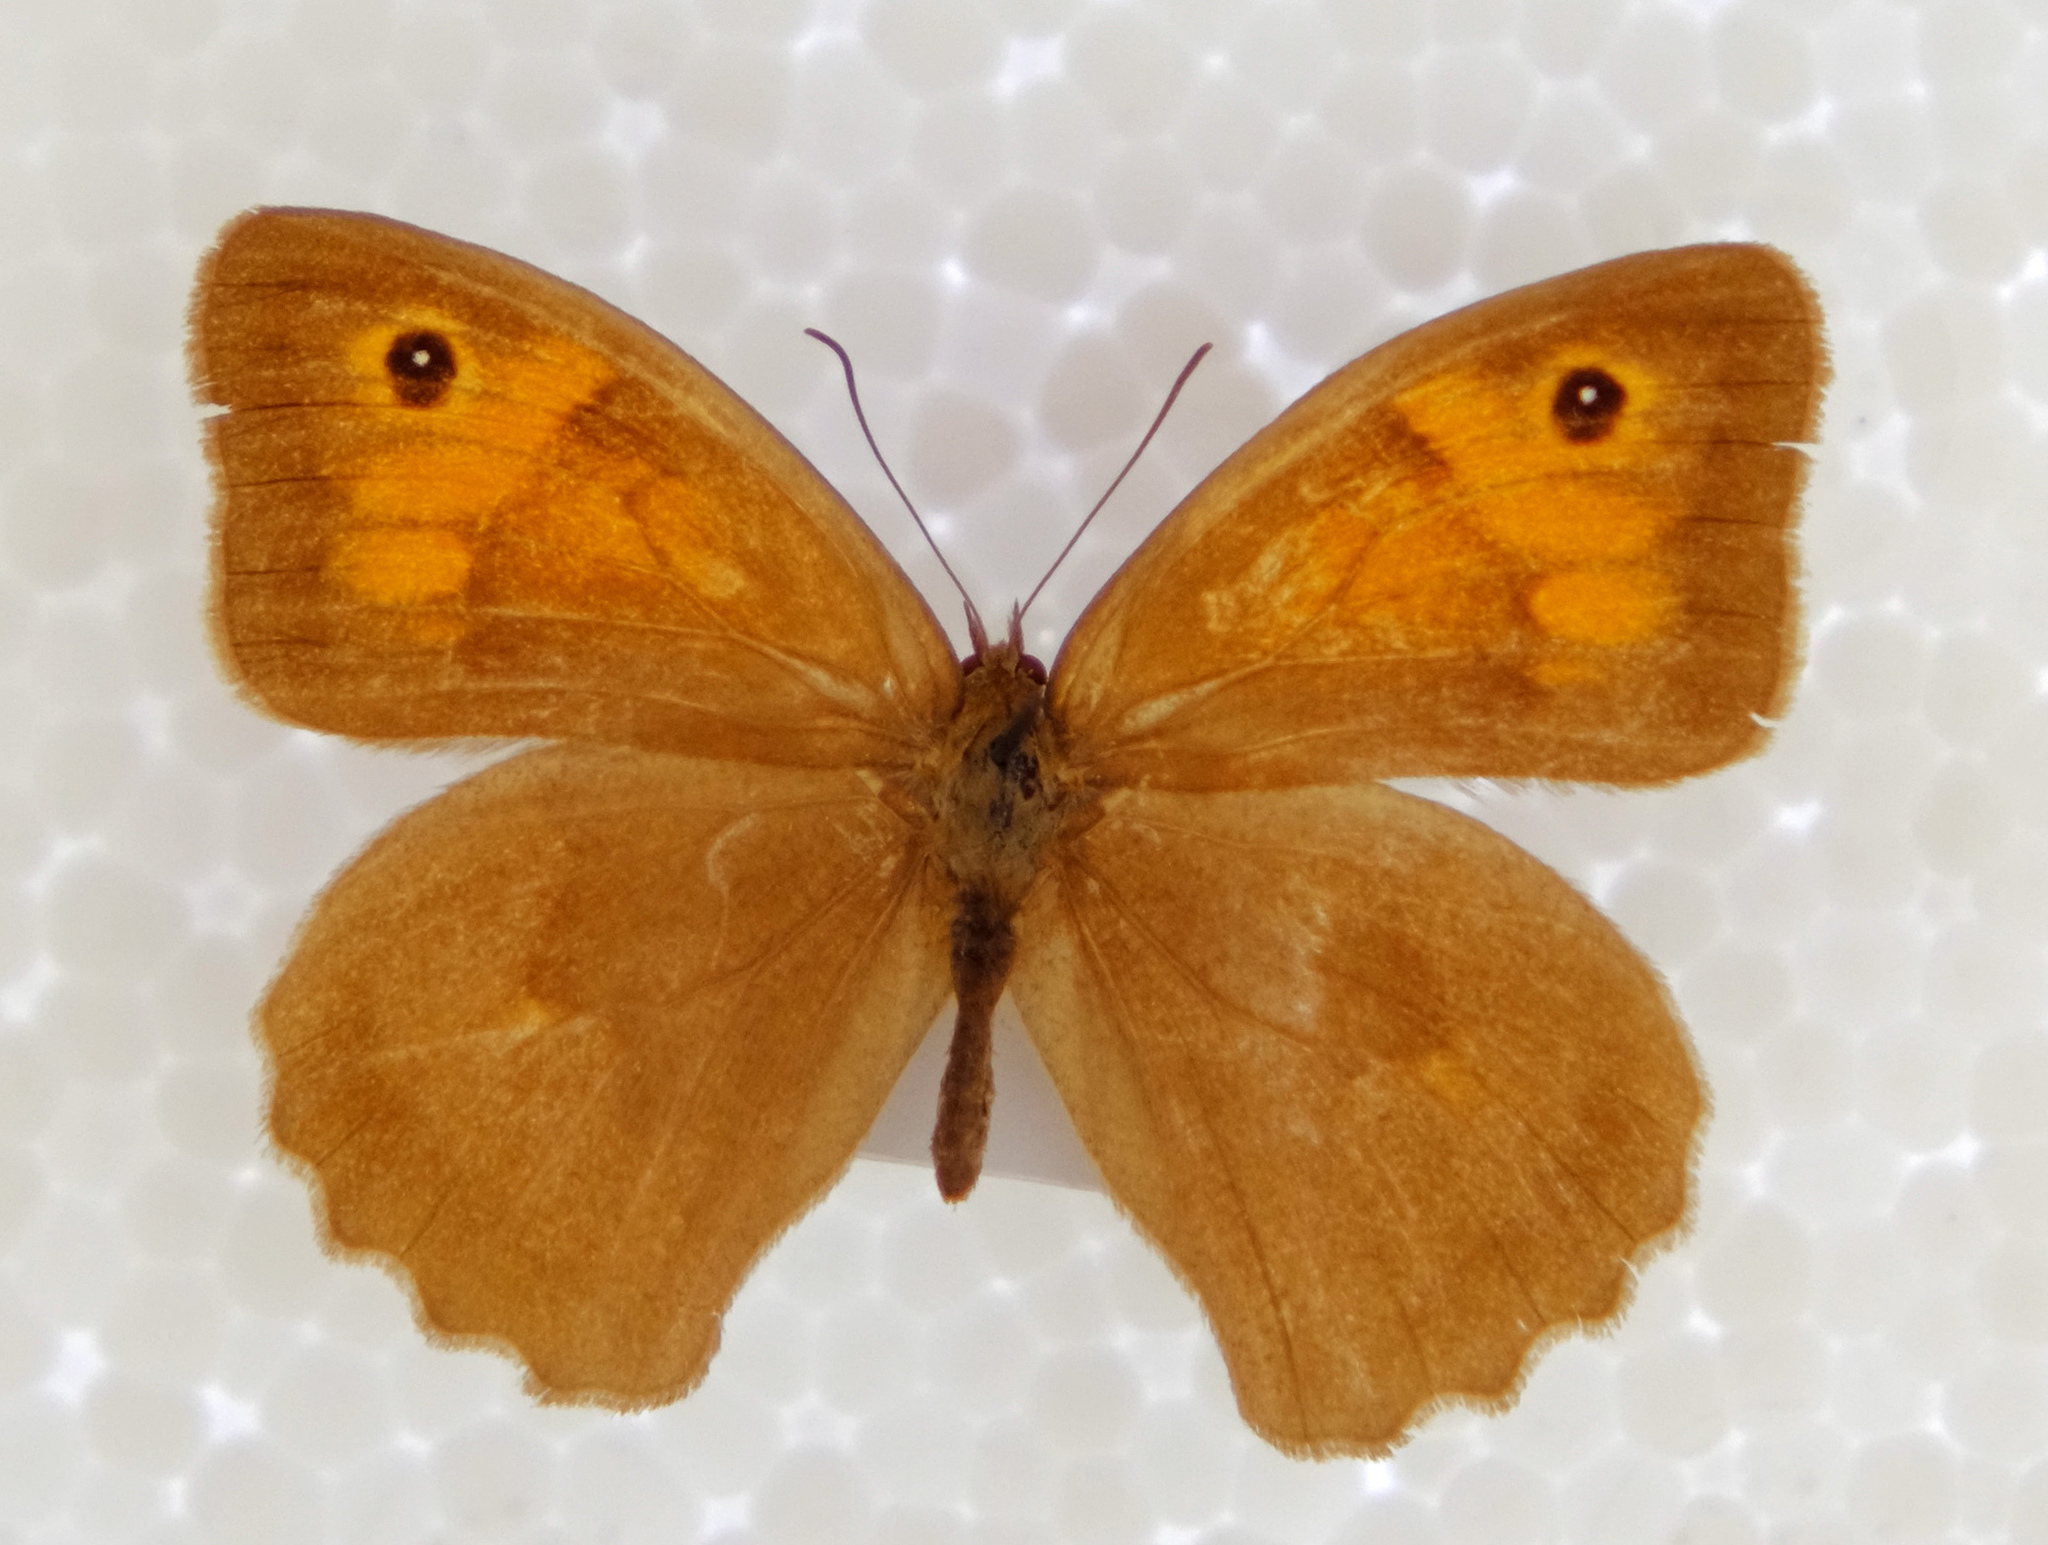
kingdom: Animalia
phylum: Arthropoda
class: Insecta
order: Lepidoptera
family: Nymphalidae
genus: Maniola
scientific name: Maniola jurtina
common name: Meadow brown
